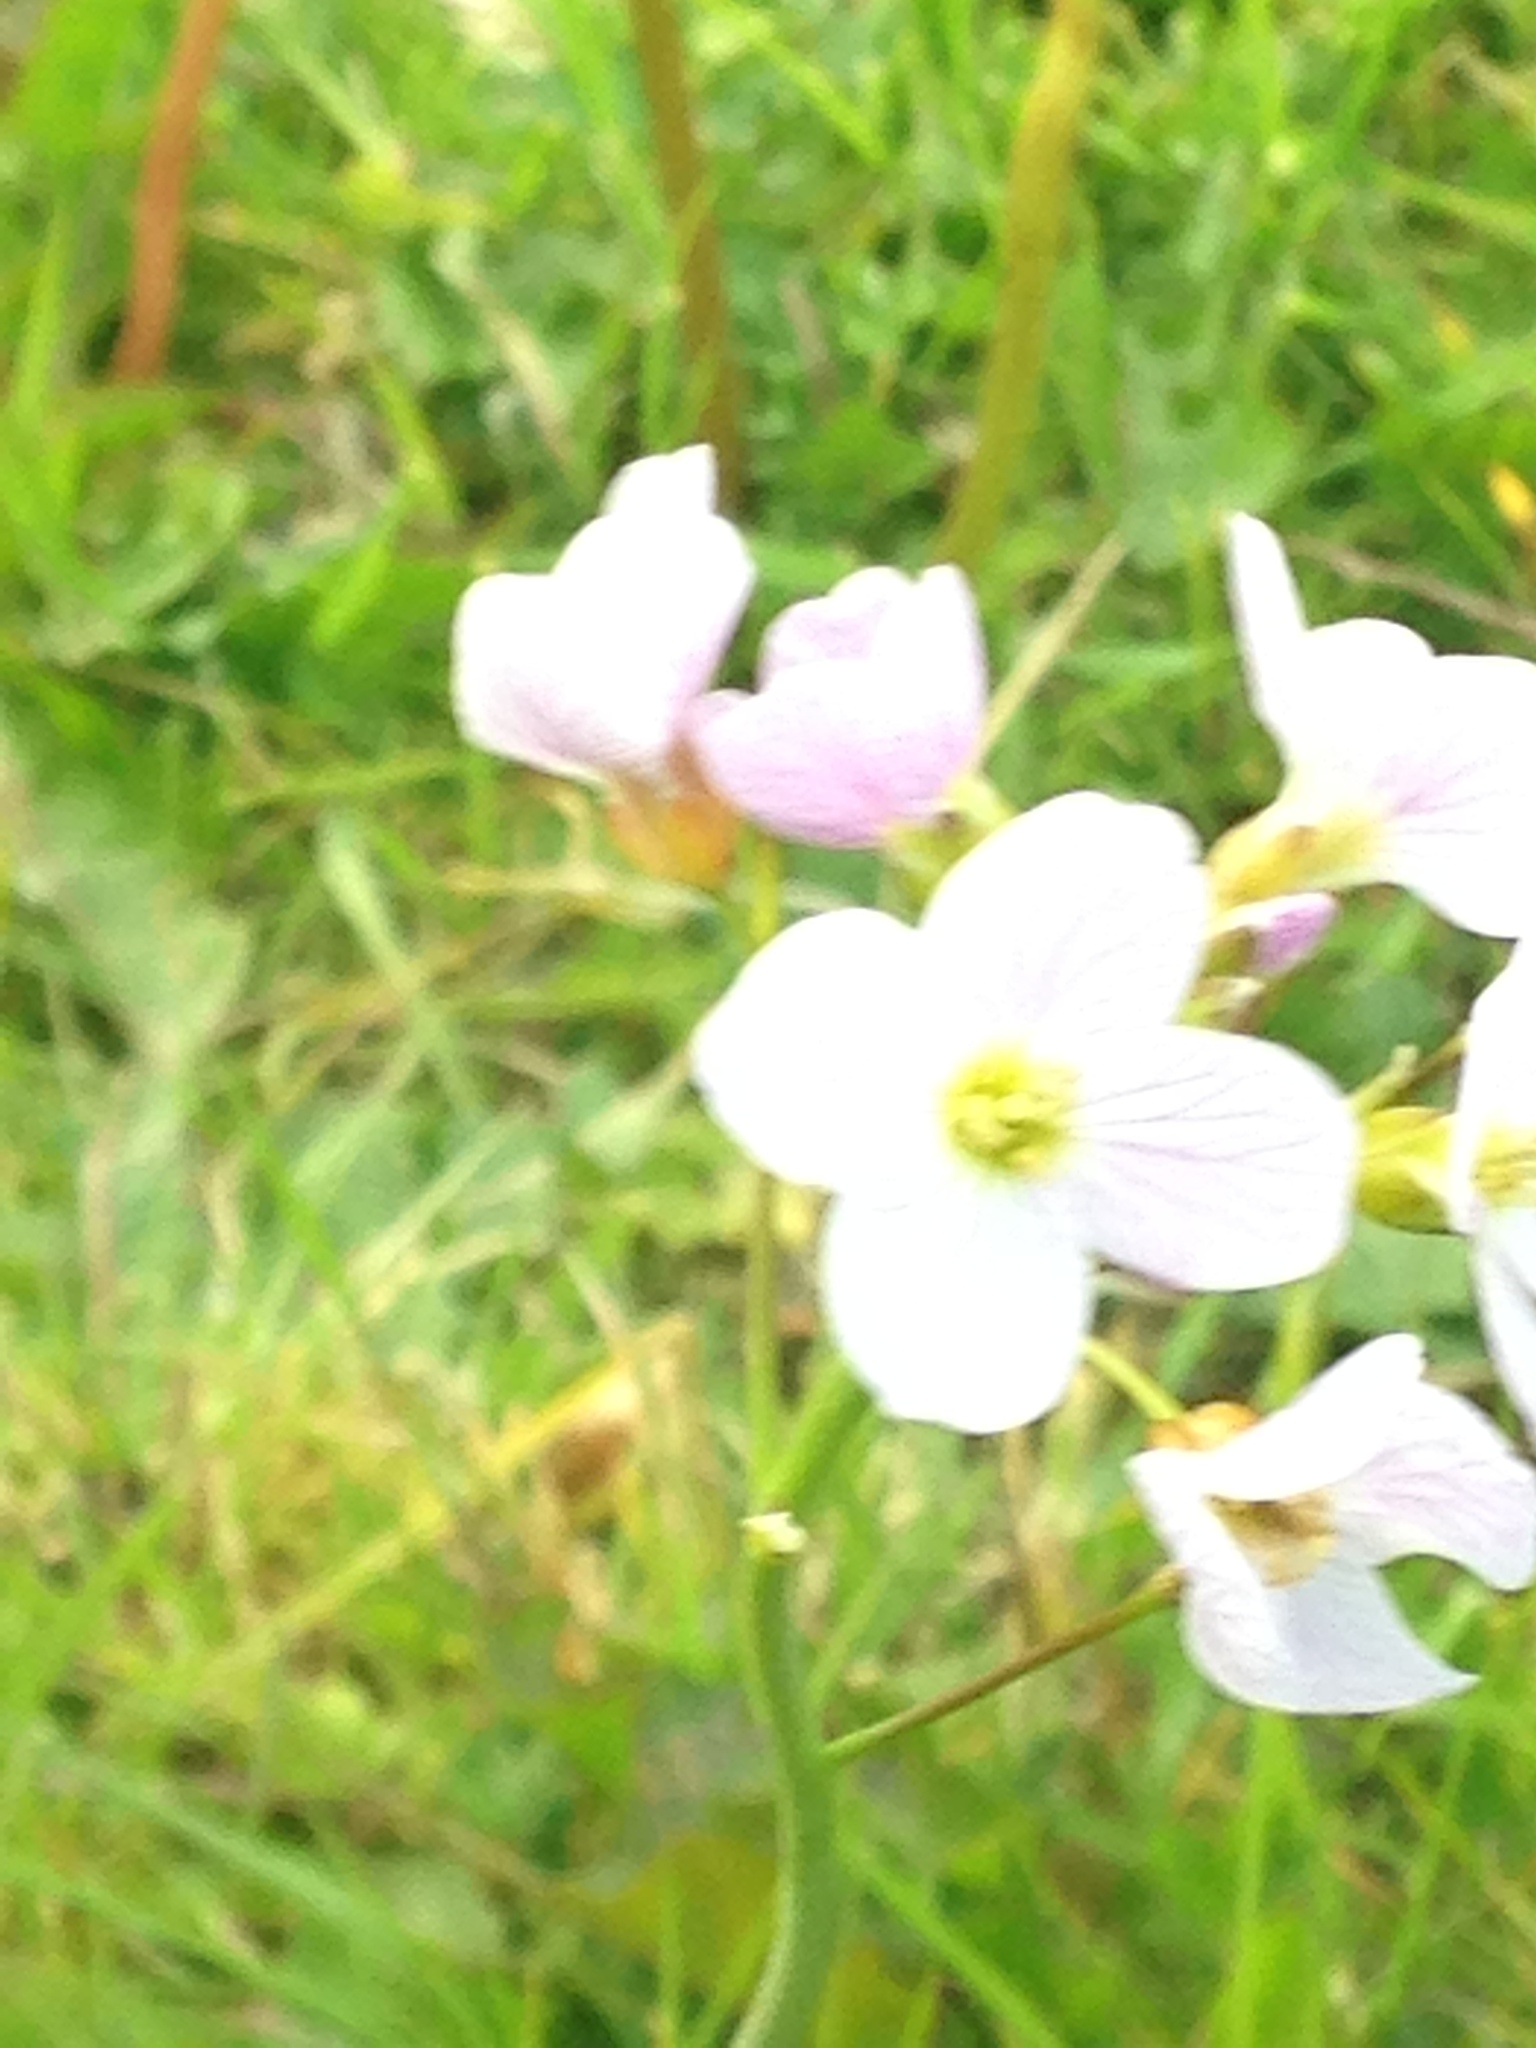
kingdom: Plantae
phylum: Tracheophyta
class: Magnoliopsida
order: Brassicales
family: Brassicaceae
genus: Cardamine
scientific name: Cardamine pratensis
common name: Cuckoo flower
